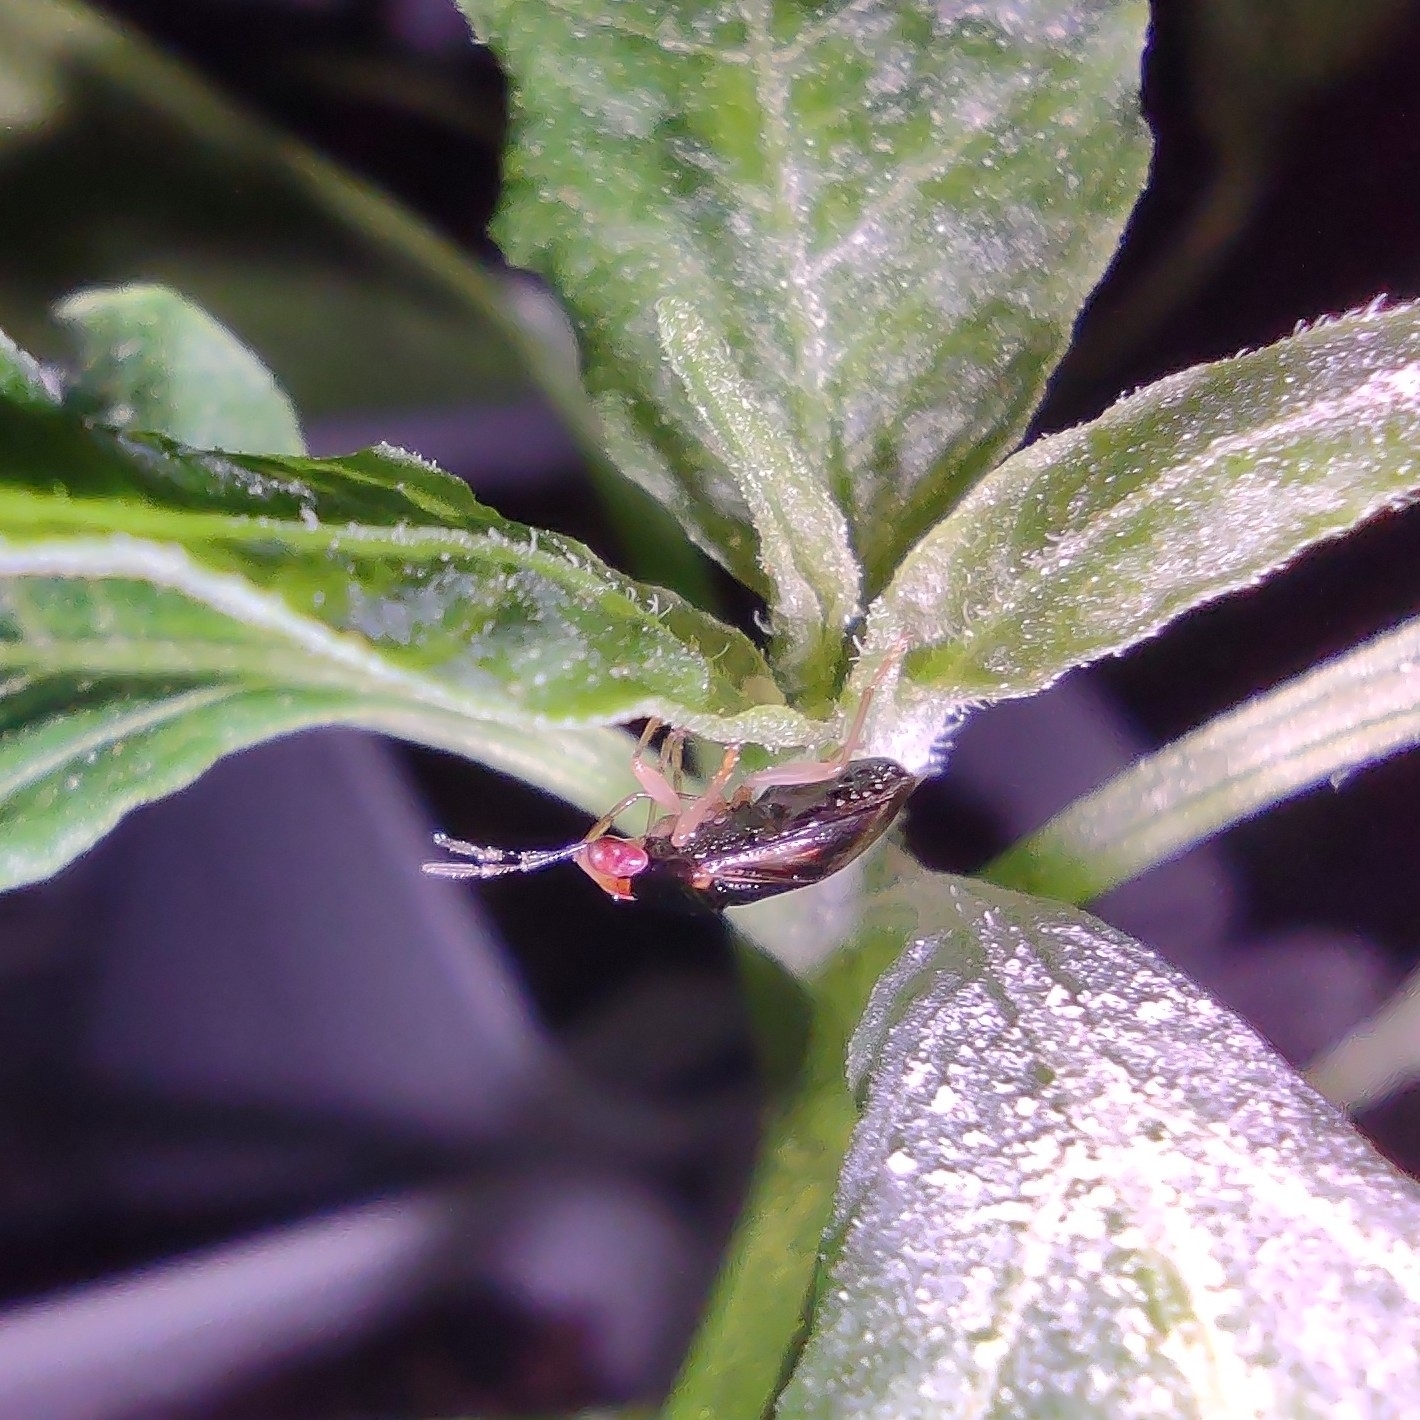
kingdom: Animalia
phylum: Arthropoda
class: Insecta
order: Hemiptera
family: Geocoridae
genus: Geocoris
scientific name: Geocoris flaviceps
